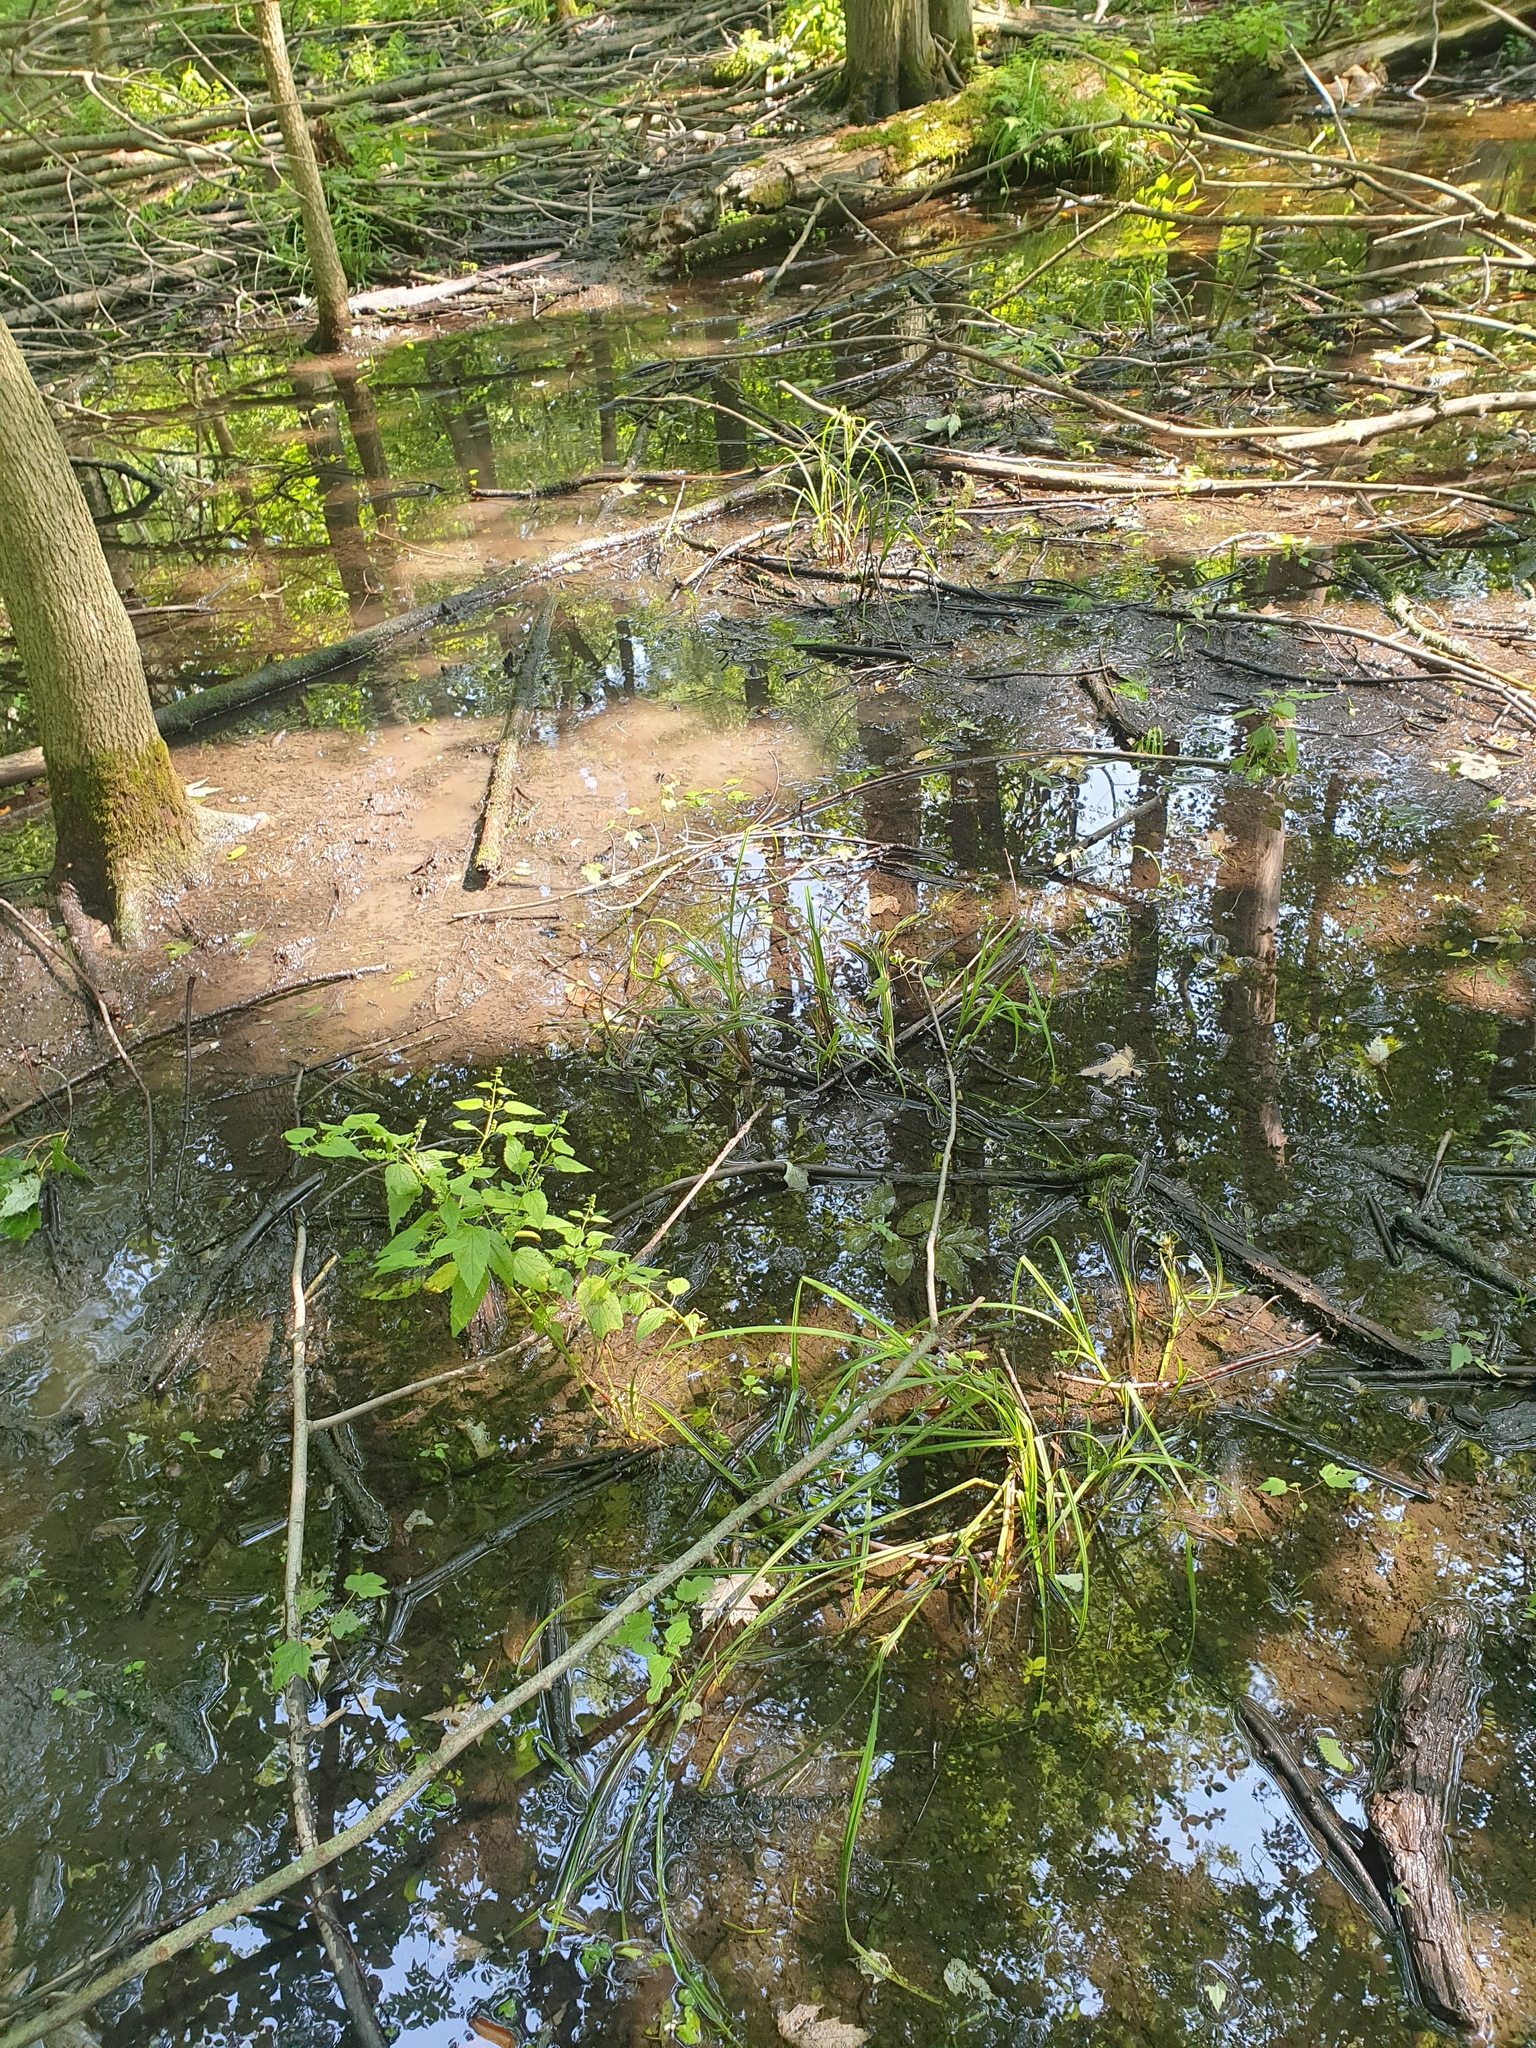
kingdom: Plantae
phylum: Tracheophyta
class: Liliopsida
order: Poales
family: Cyperaceae
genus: Carex
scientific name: Carex lupulina
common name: Hop sedge
